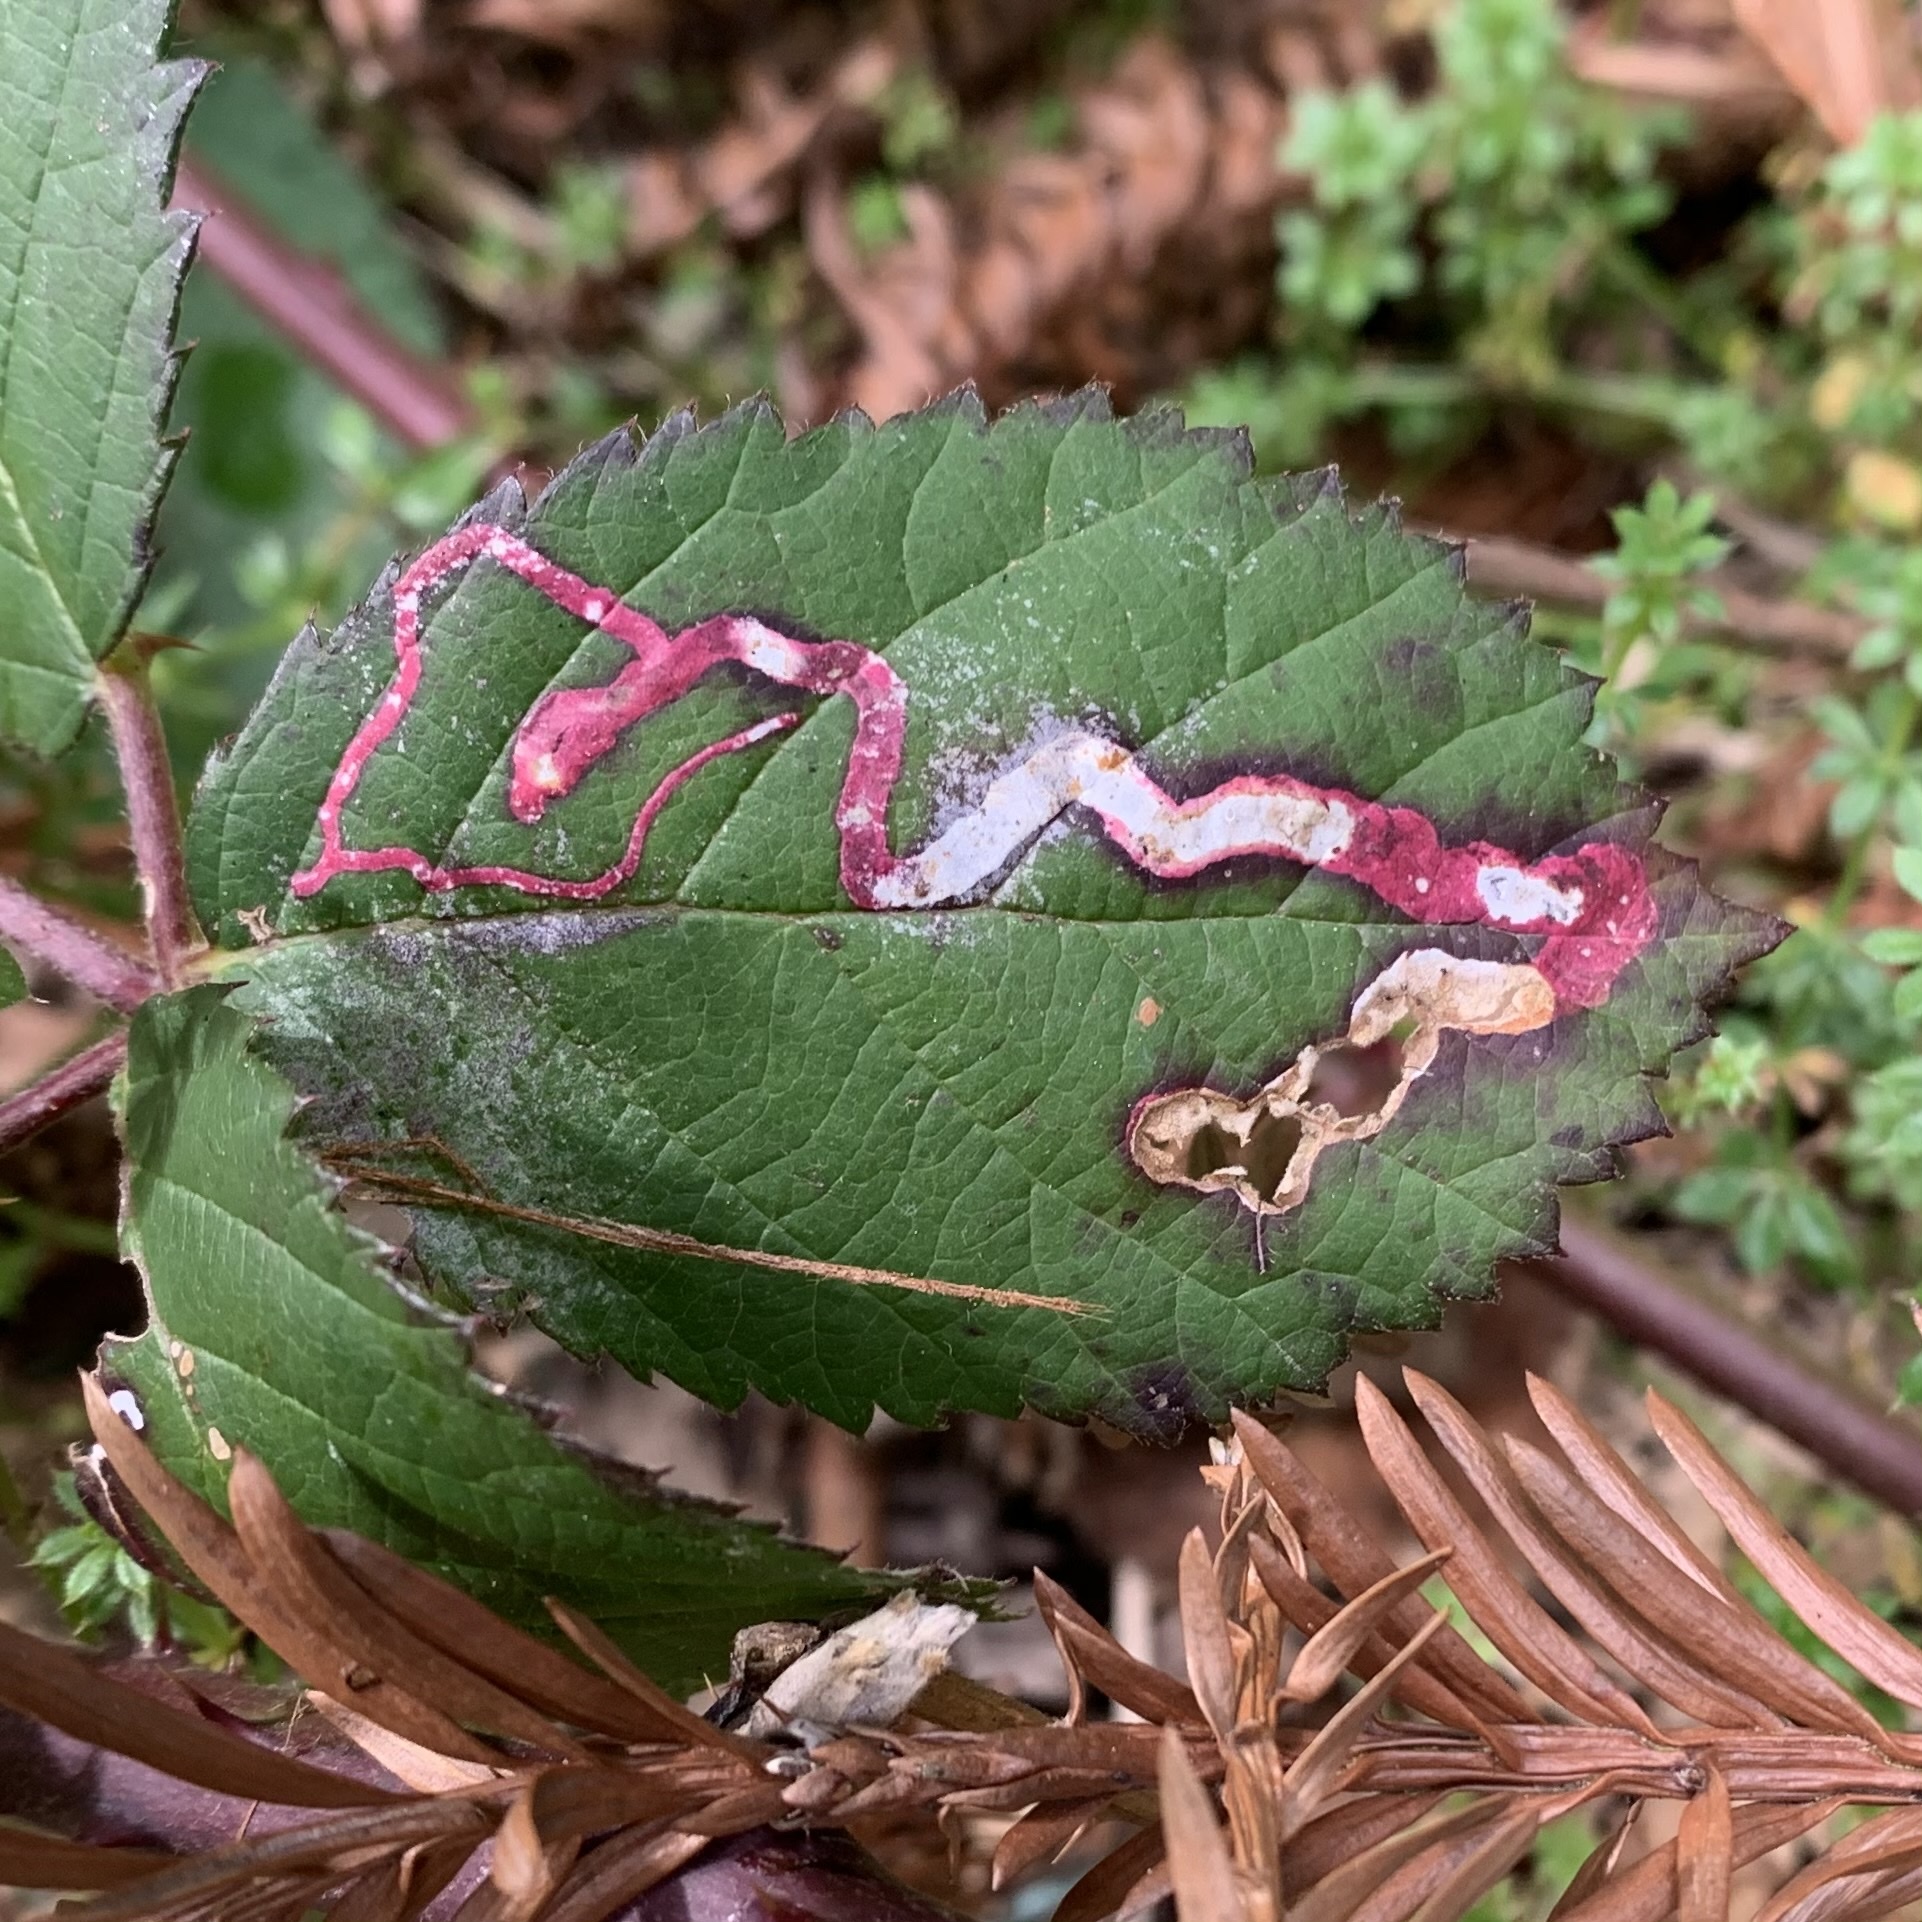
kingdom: Animalia
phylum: Arthropoda
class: Insecta
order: Diptera
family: Agromyzidae
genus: Agromyza
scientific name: Agromyza vockerothi
